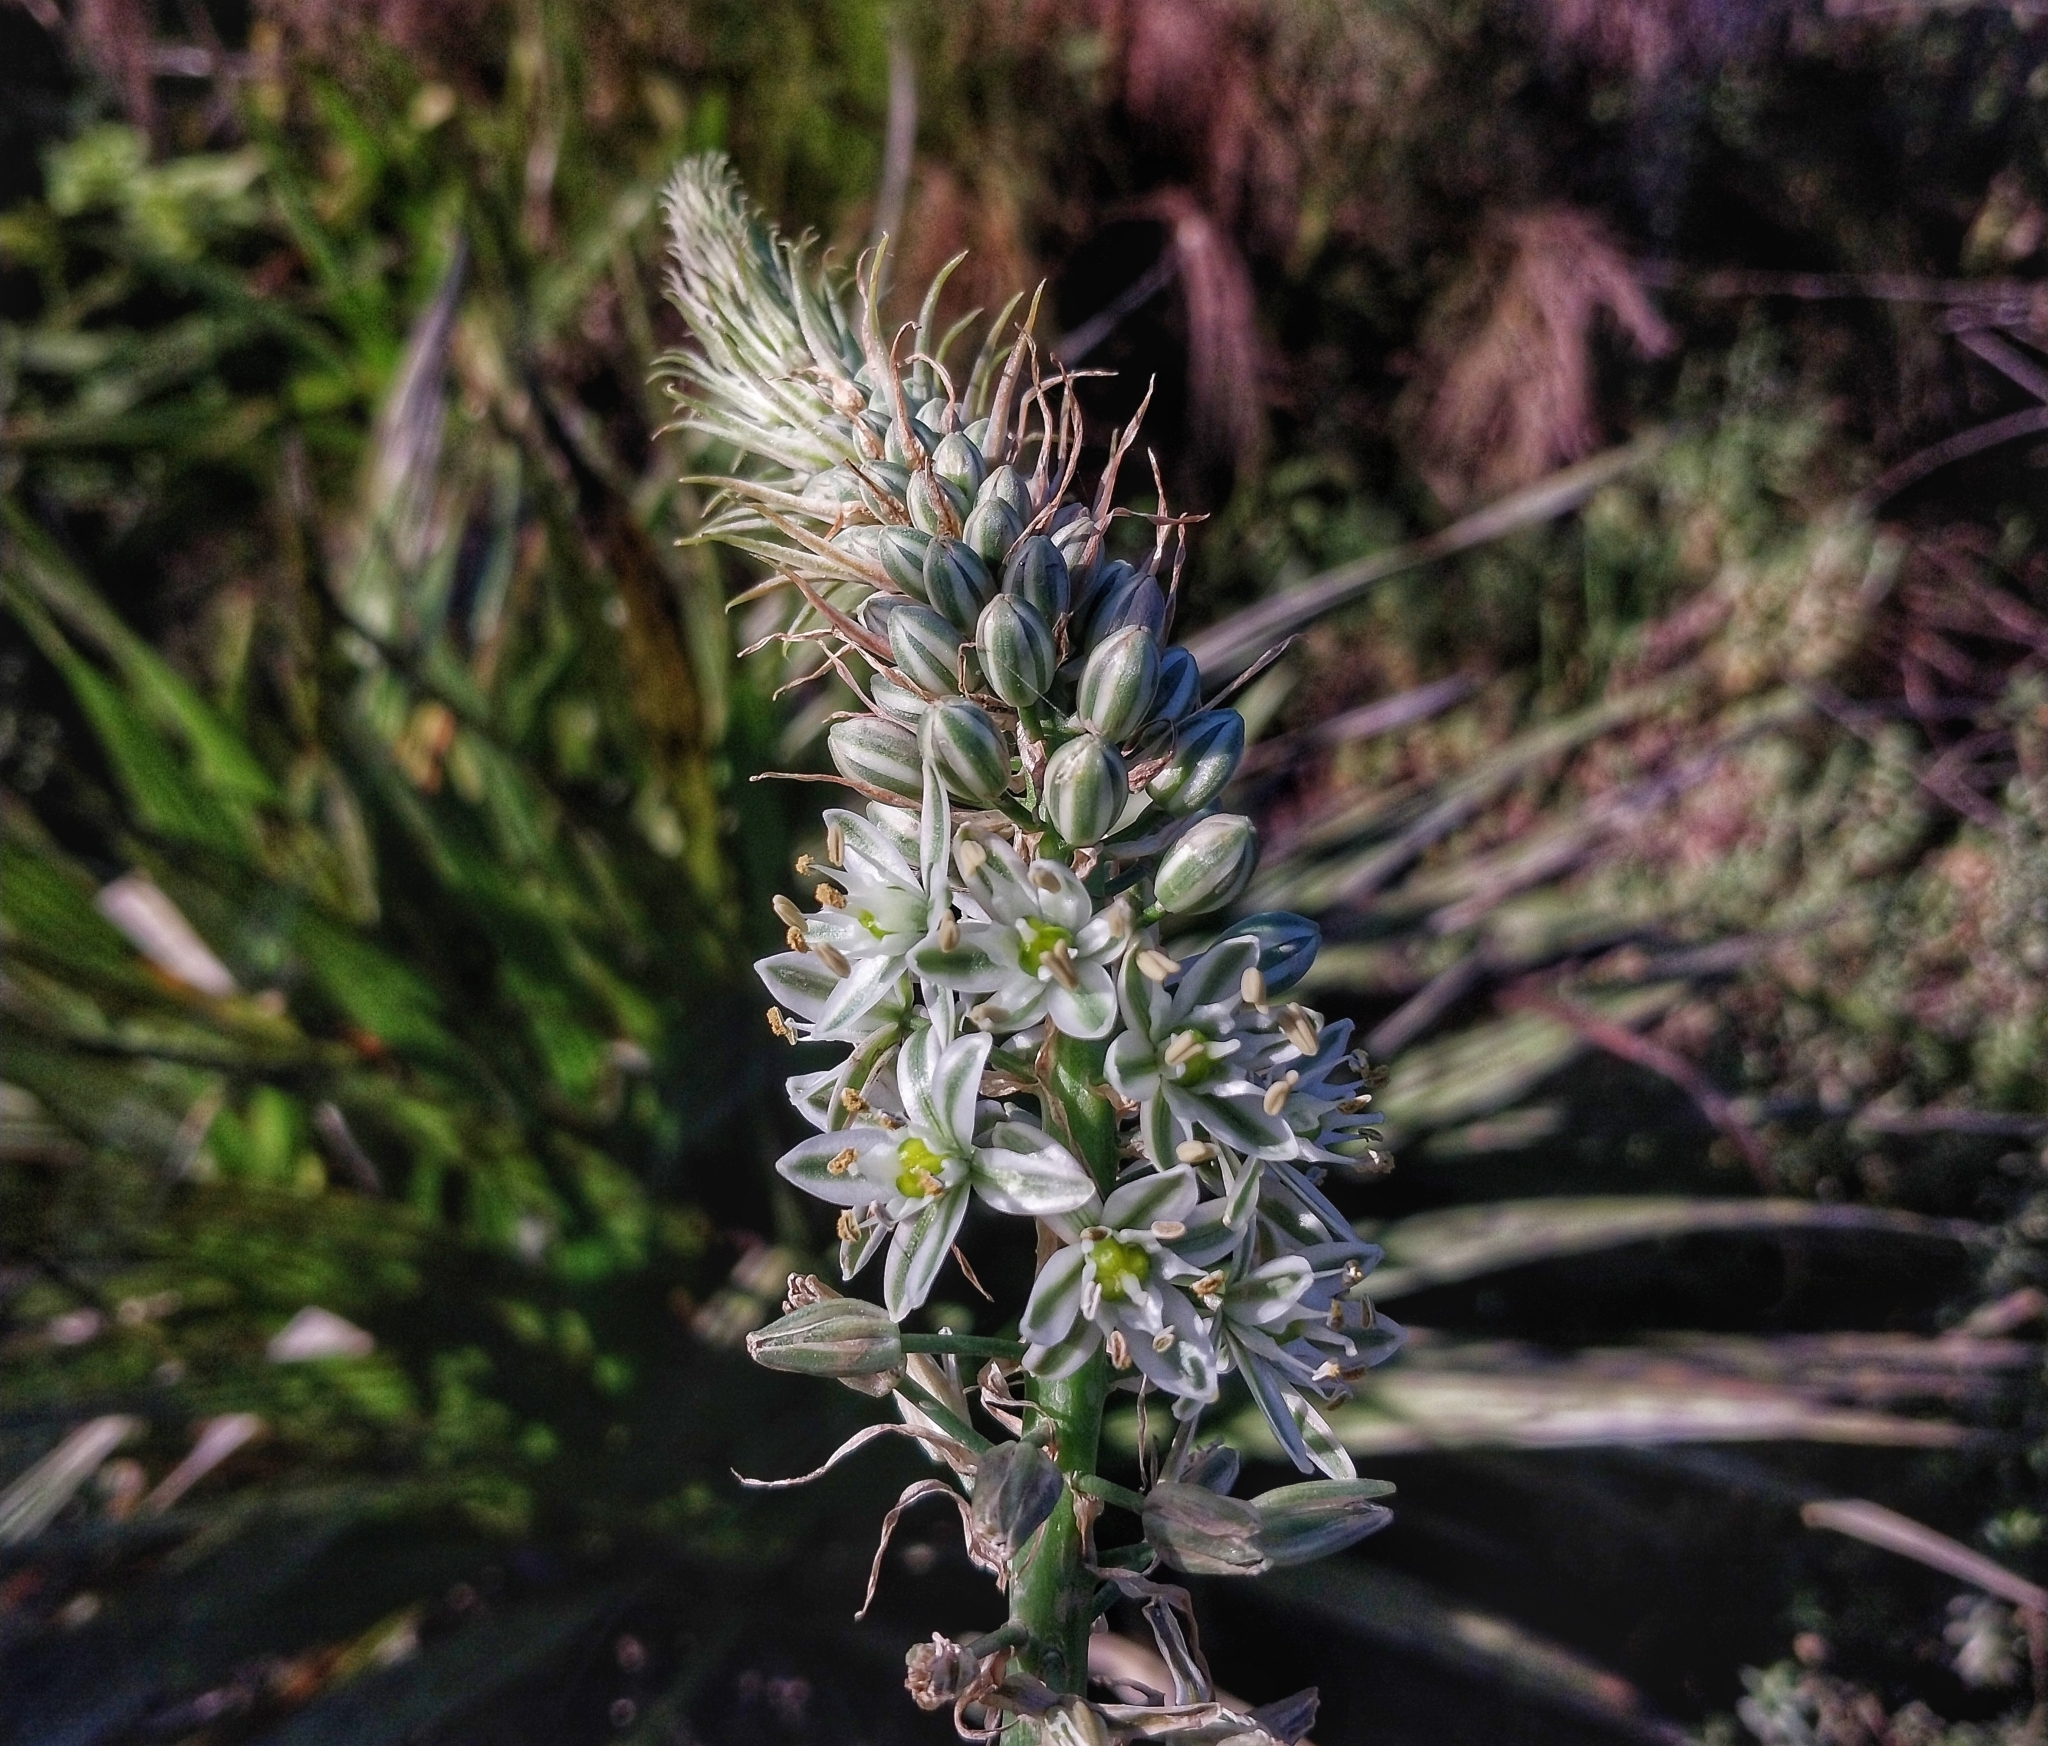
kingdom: Plantae
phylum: Tracheophyta
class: Liliopsida
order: Asparagales
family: Asparagaceae
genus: Albuca
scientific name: Albuca bracteata
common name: Sea-onion
